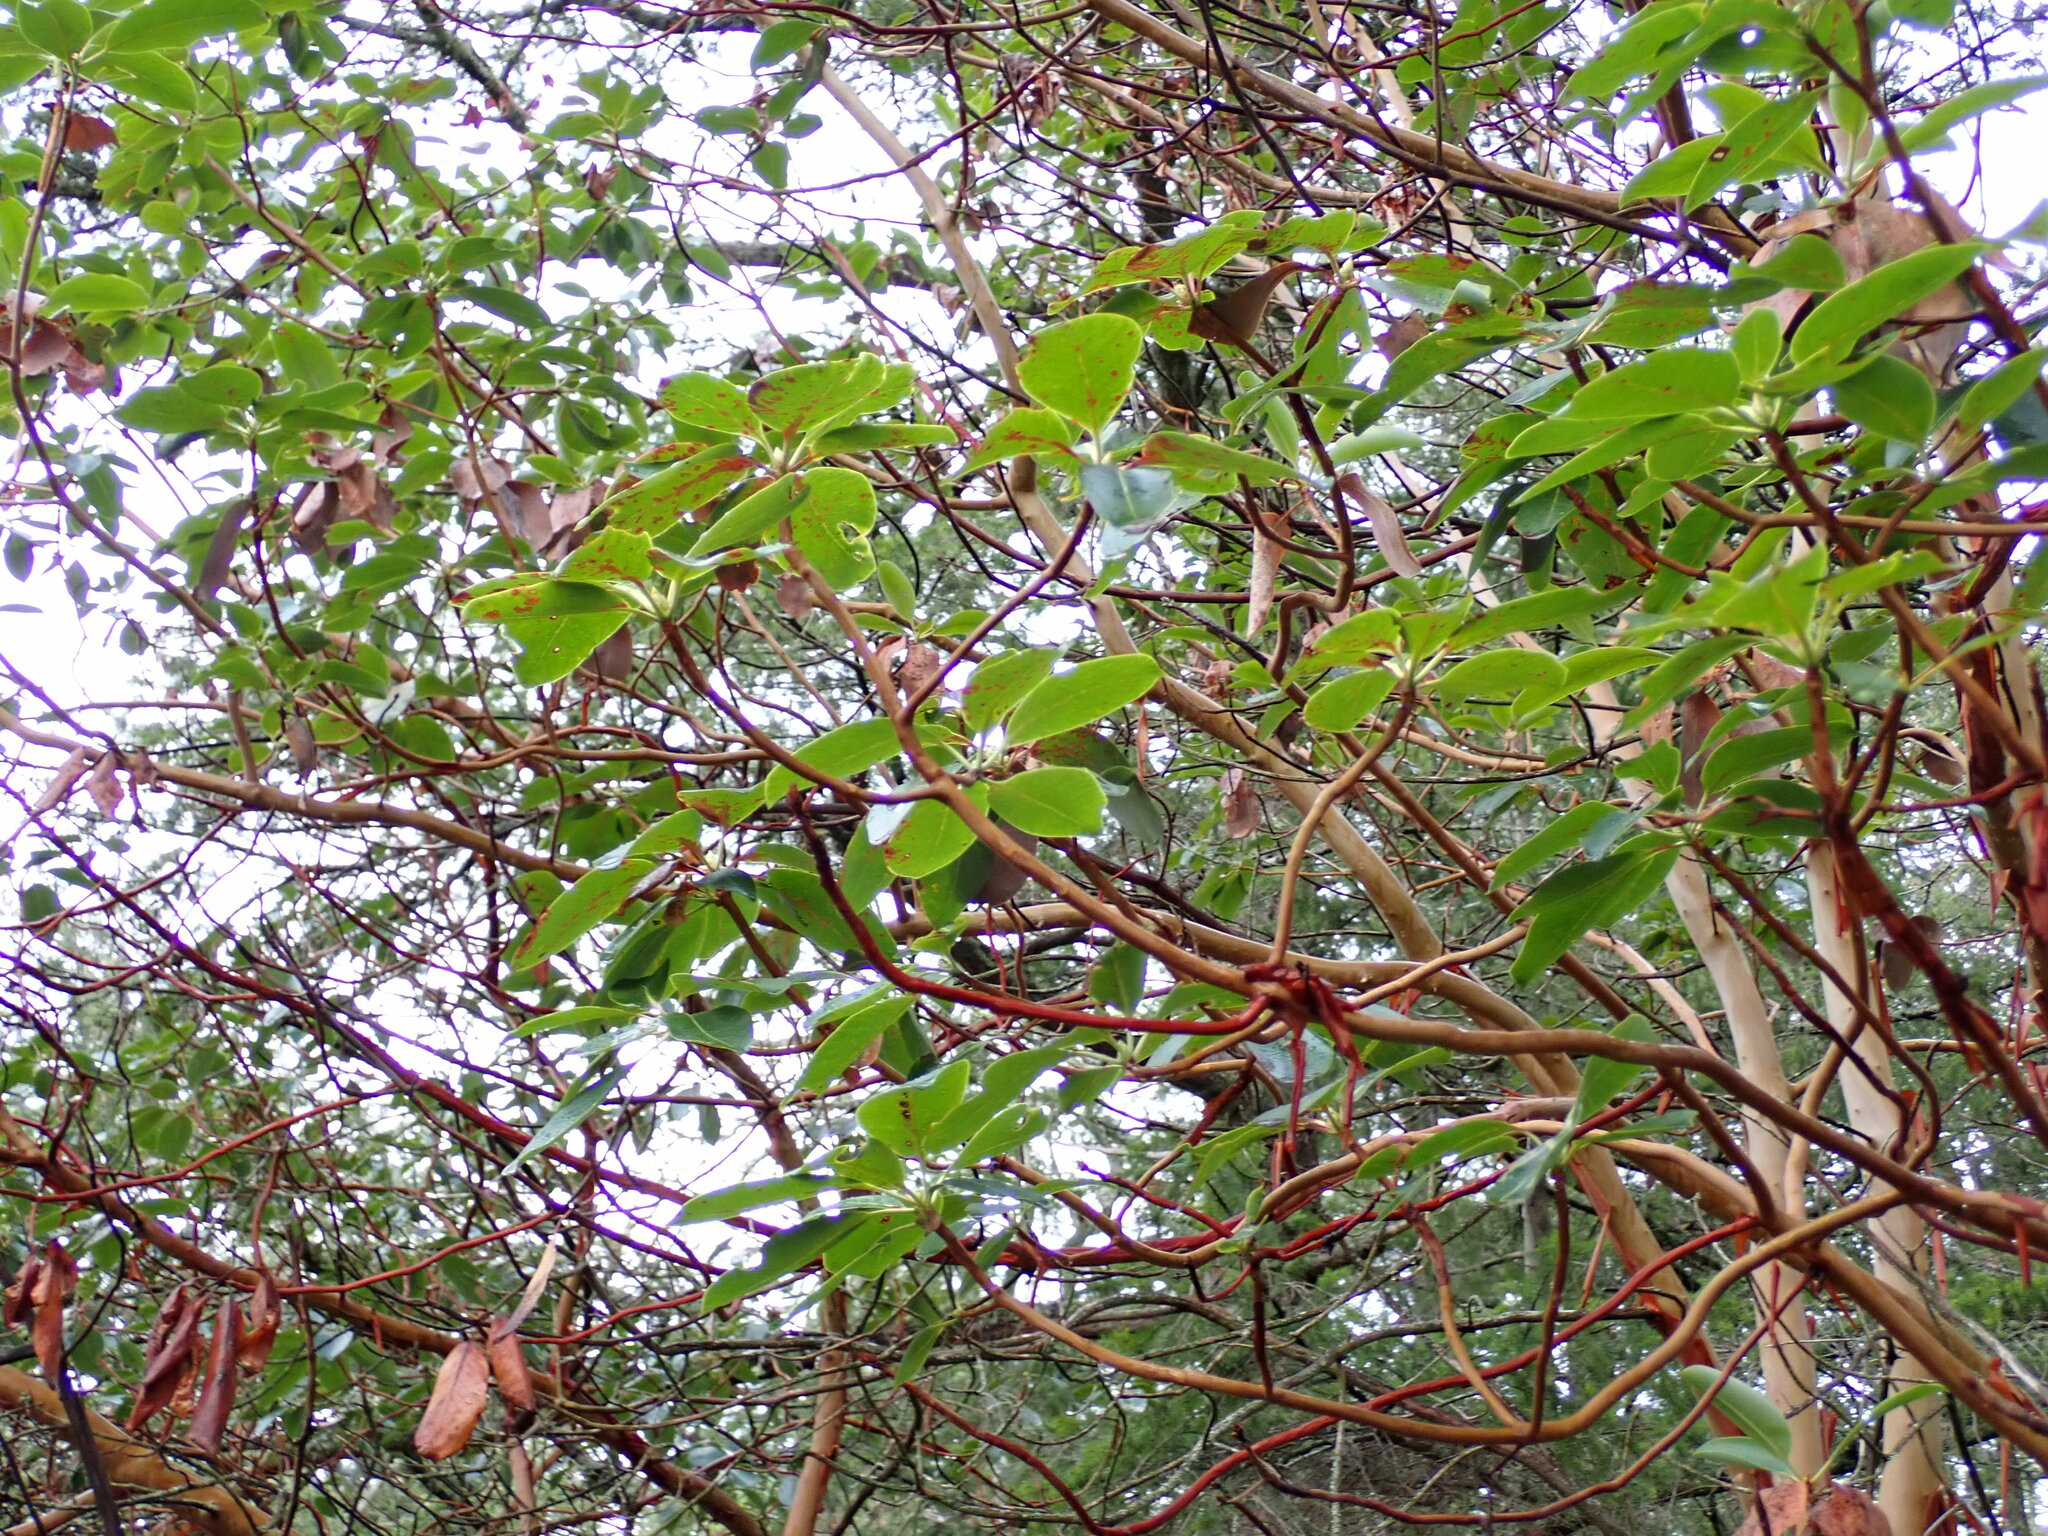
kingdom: Plantae
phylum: Tracheophyta
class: Magnoliopsida
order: Ericales
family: Ericaceae
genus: Arbutus
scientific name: Arbutus menziesii
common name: Pacific madrone
